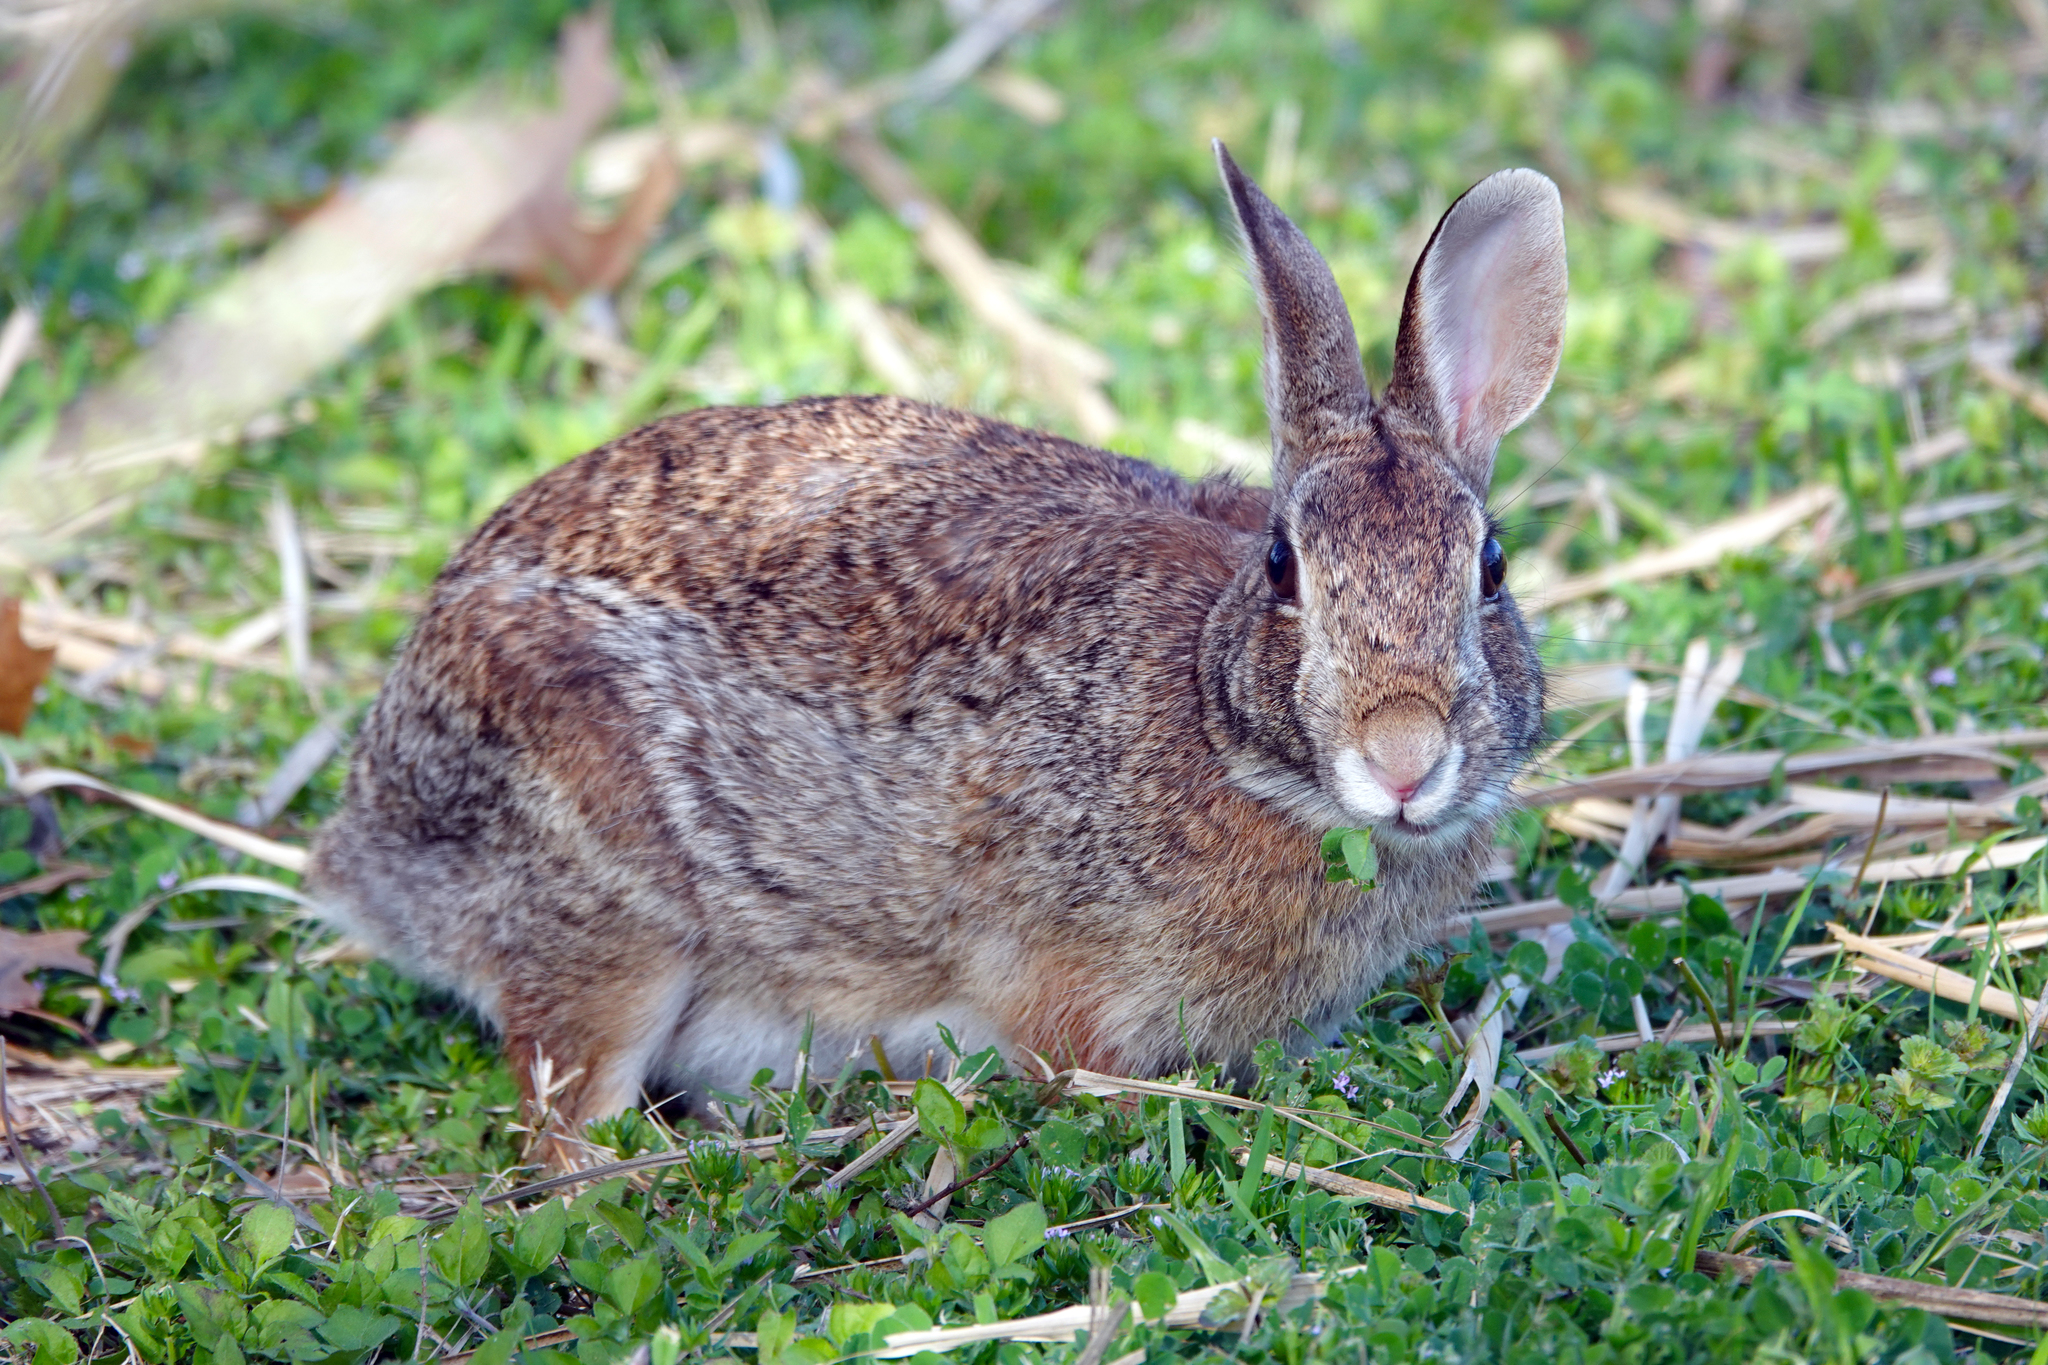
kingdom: Animalia
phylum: Chordata
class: Mammalia
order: Lagomorpha
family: Leporidae
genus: Sylvilagus
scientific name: Sylvilagus floridanus
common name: Eastern cottontail
